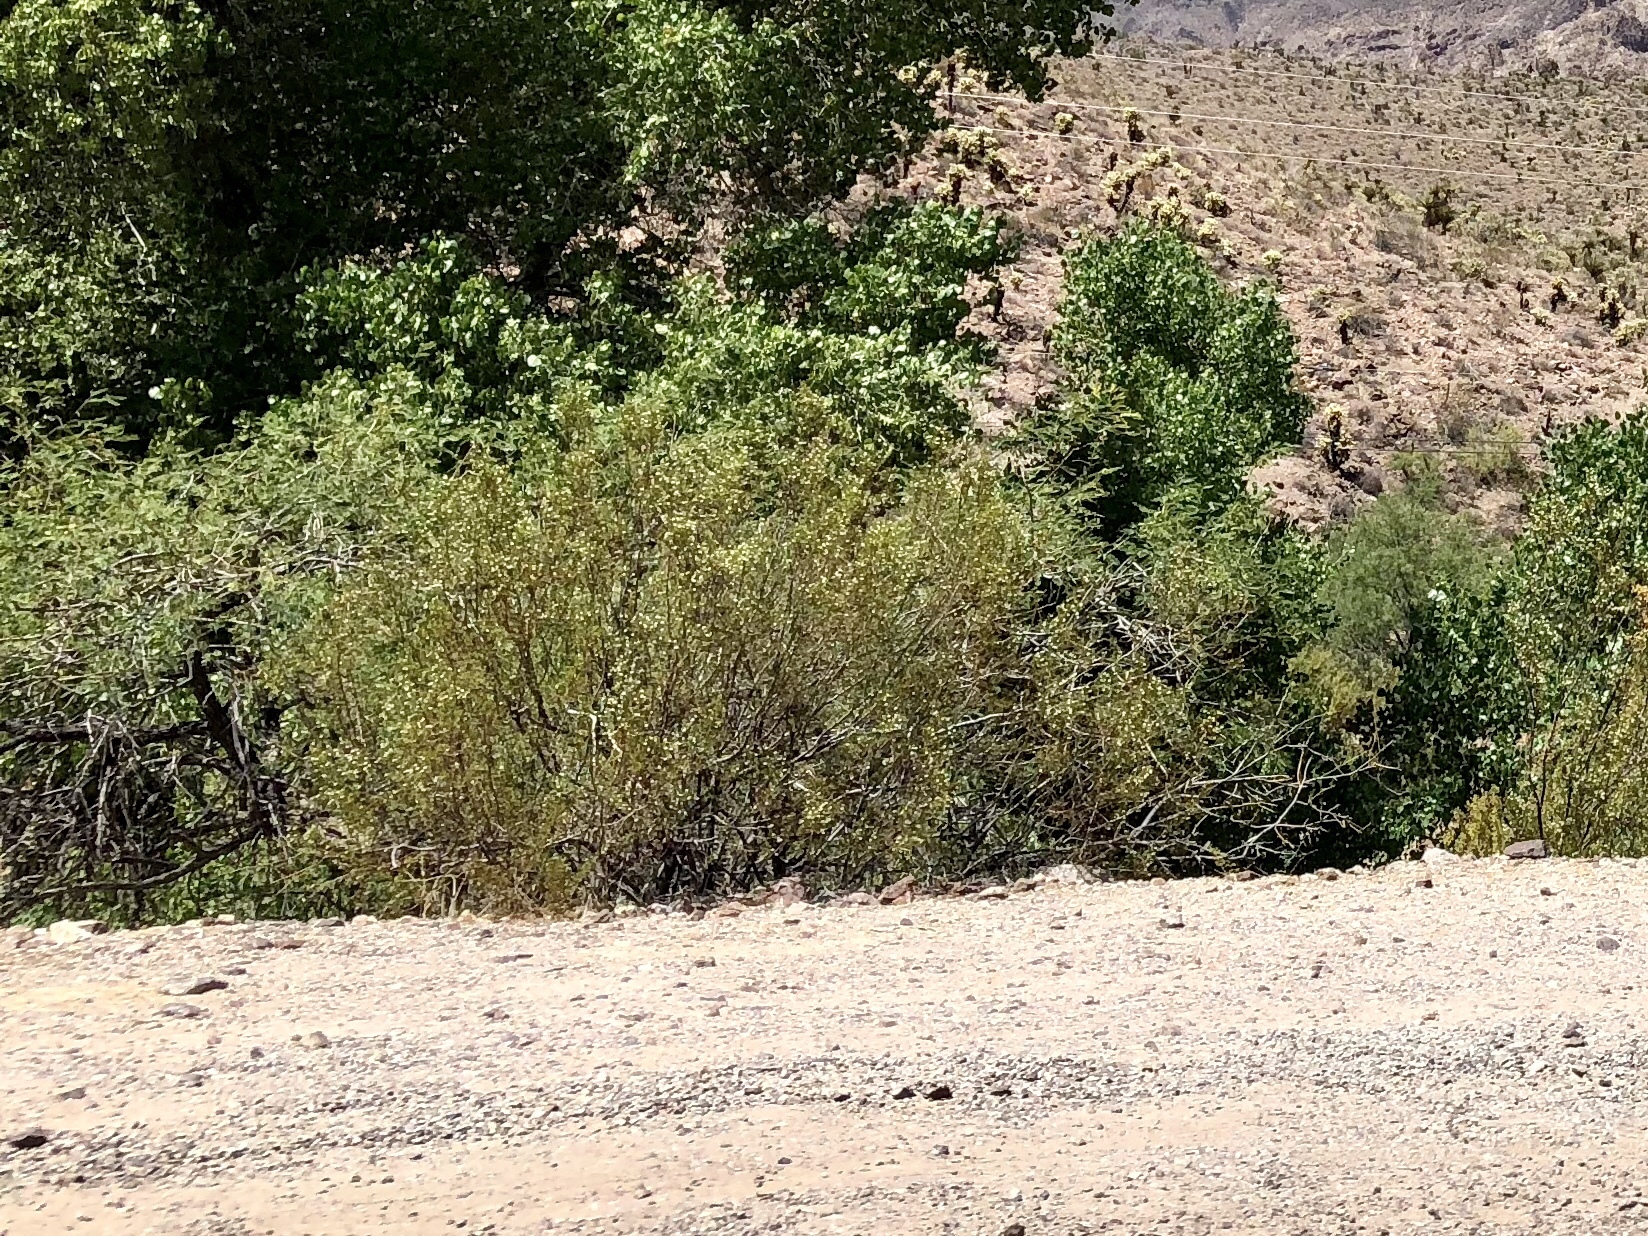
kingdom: Plantae
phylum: Tracheophyta
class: Magnoliopsida
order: Zygophyllales
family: Zygophyllaceae
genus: Larrea
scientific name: Larrea tridentata
